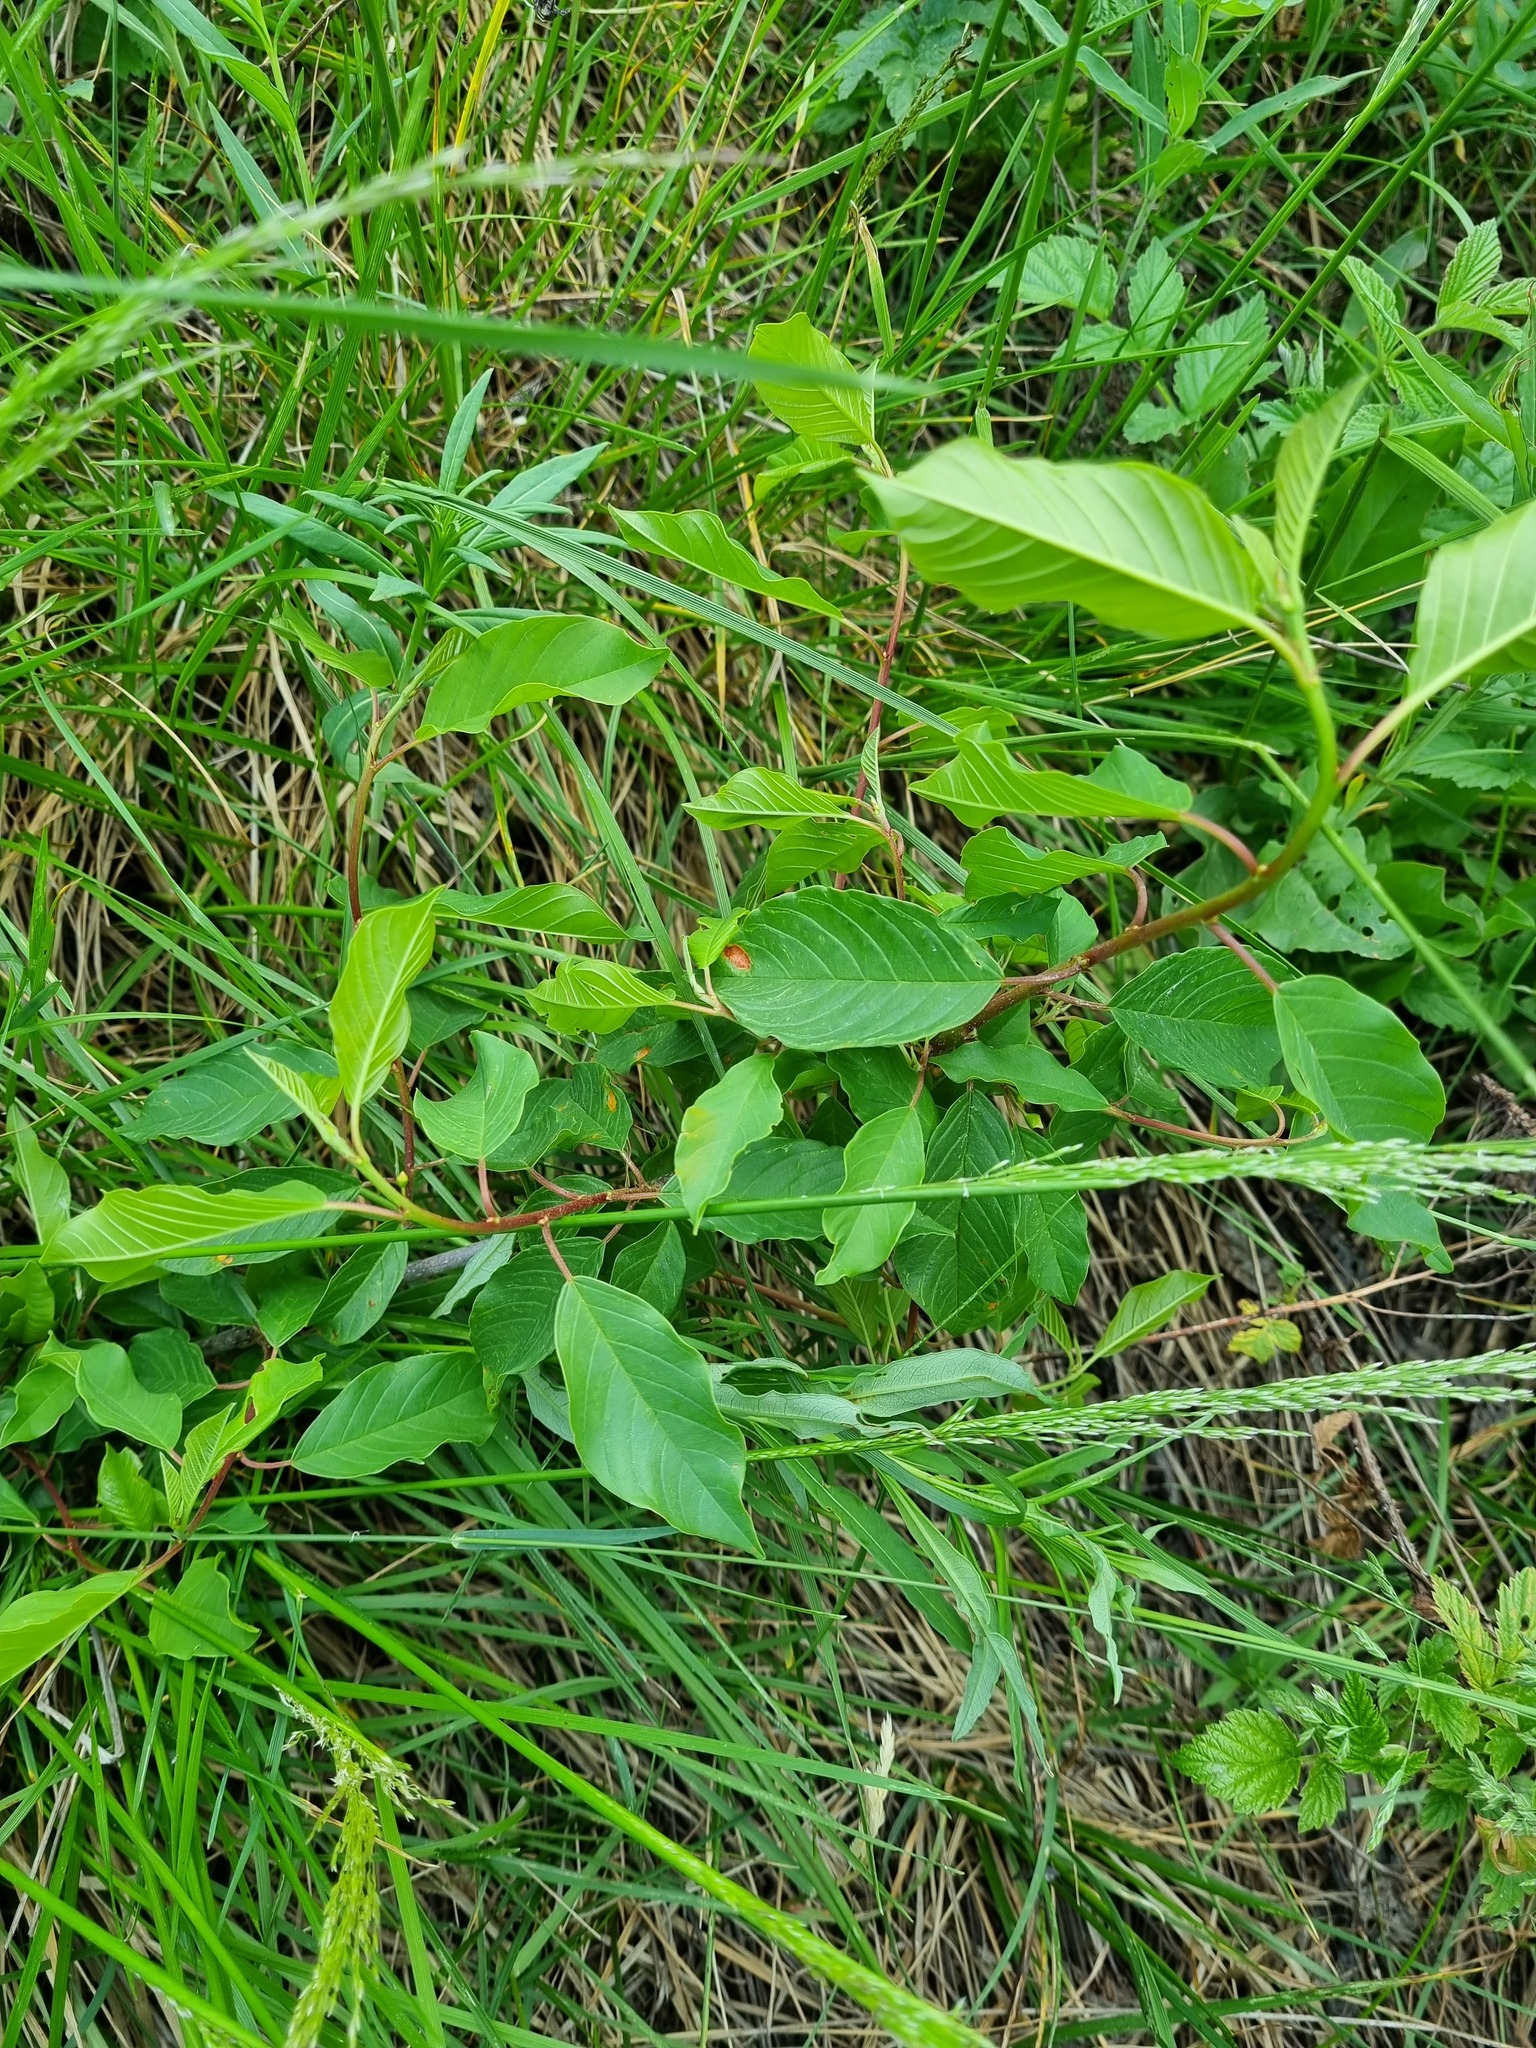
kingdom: Plantae
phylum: Tracheophyta
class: Magnoliopsida
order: Rosales
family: Rhamnaceae
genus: Frangula
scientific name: Frangula alnus
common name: Alder buckthorn
